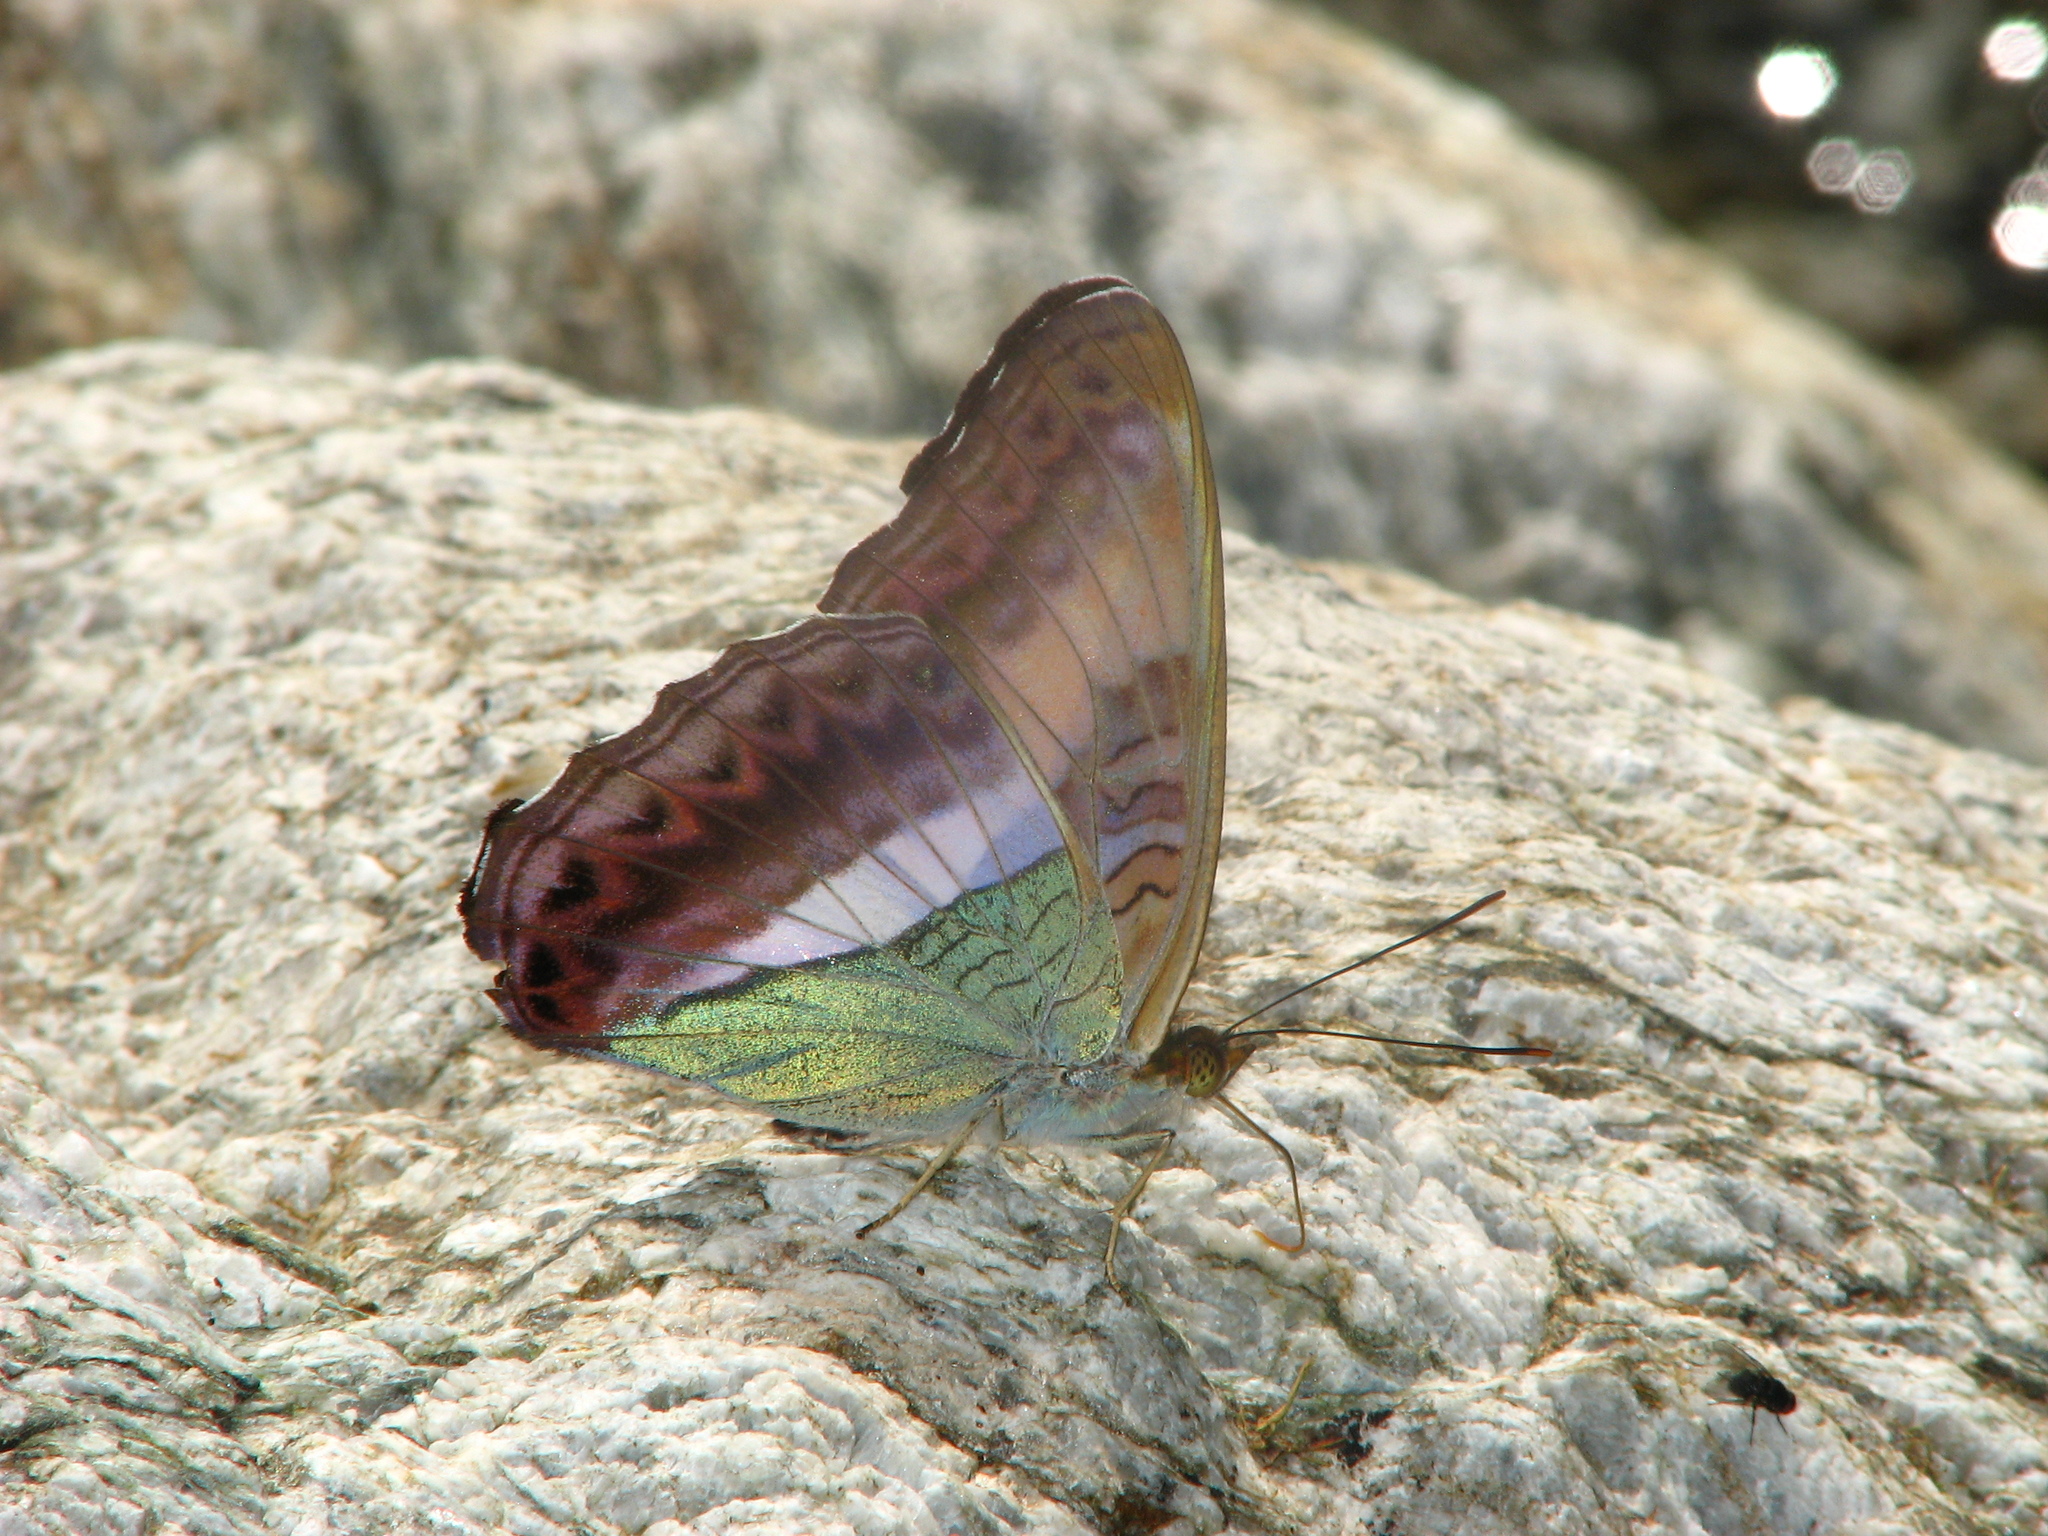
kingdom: Animalia
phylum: Arthropoda
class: Insecta
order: Lepidoptera
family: Nymphalidae
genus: Limenitis
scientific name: Limenitis Parasarpa zayla
